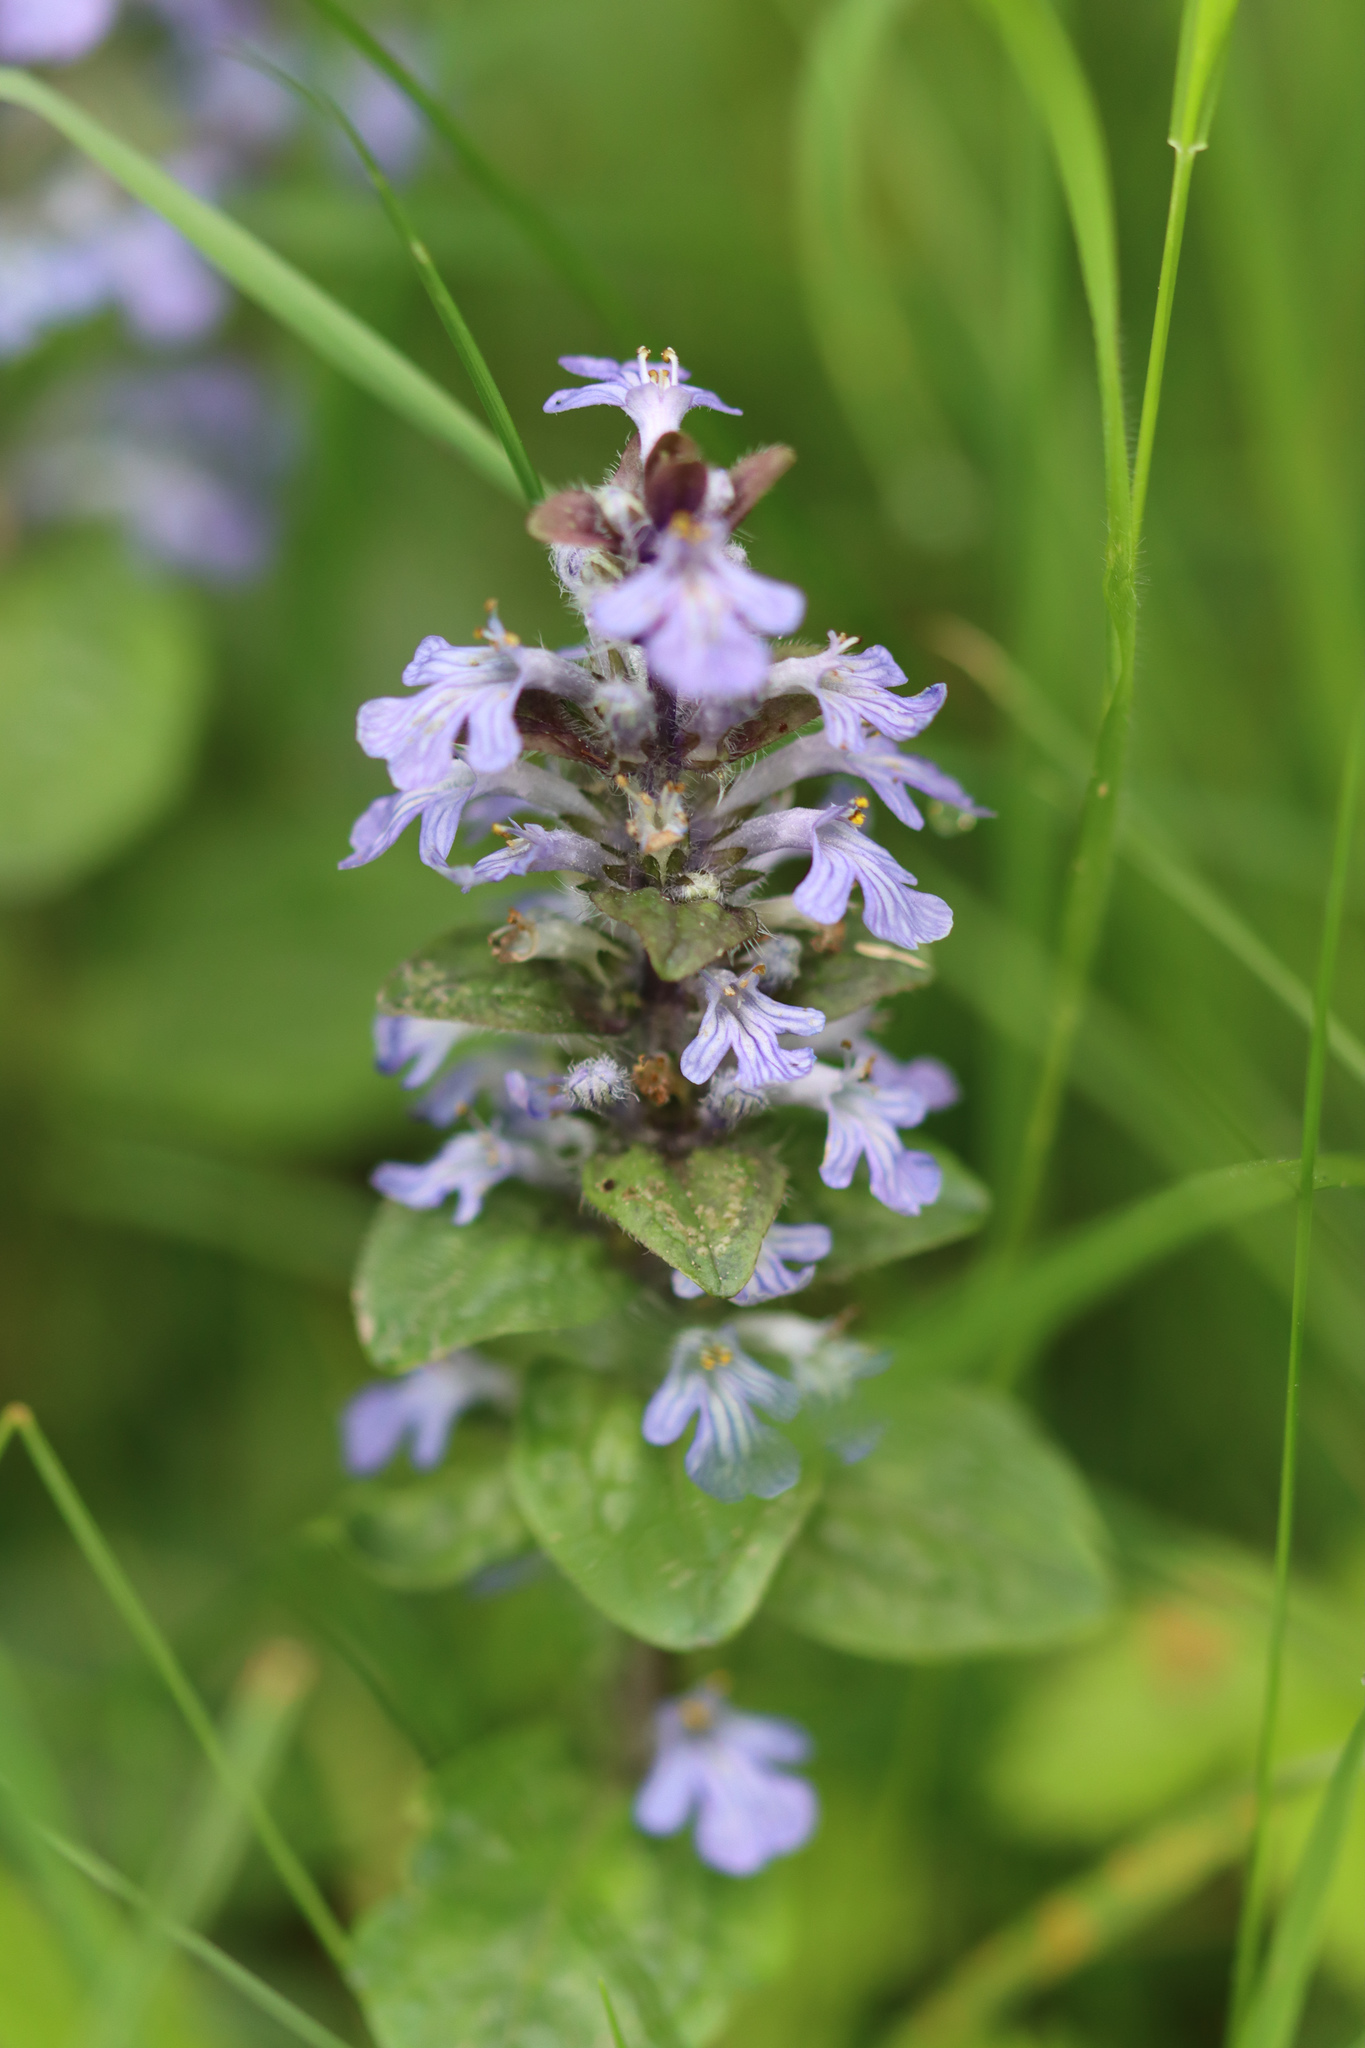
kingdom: Plantae
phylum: Tracheophyta
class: Magnoliopsida
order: Lamiales
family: Lamiaceae
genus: Ajuga
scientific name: Ajuga reptans
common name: Bugle
